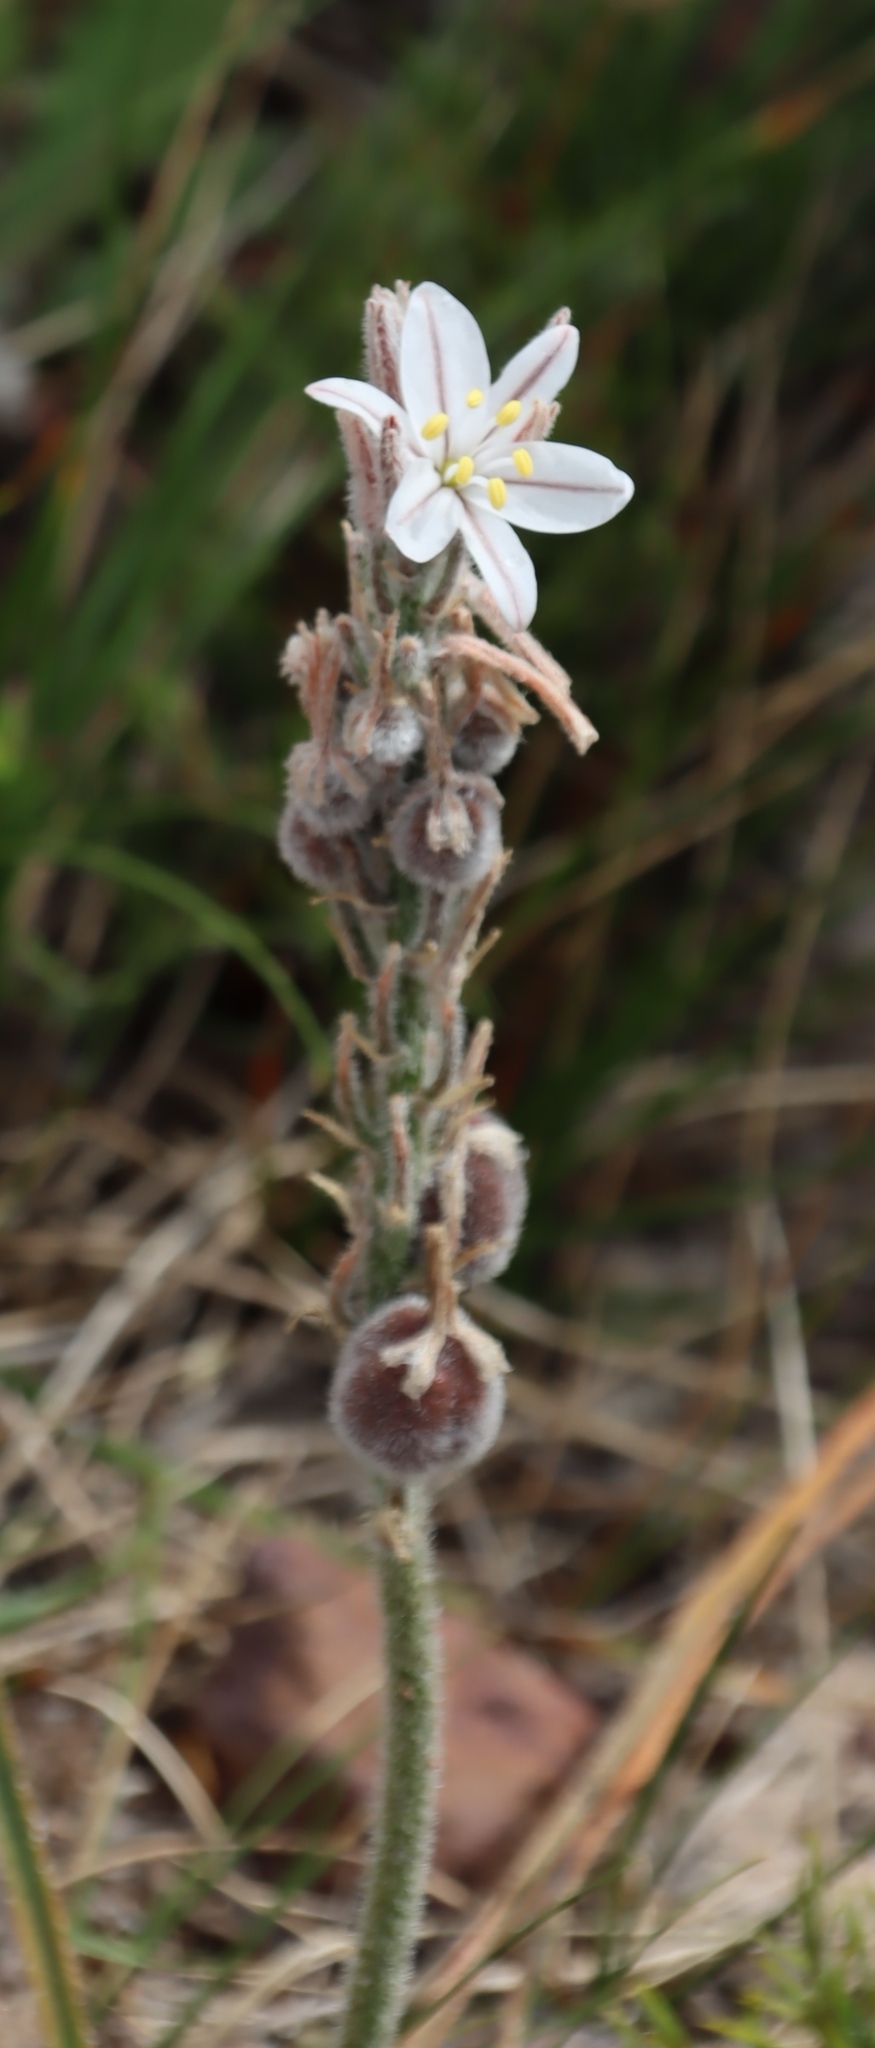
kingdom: Plantae
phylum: Tracheophyta
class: Liliopsida
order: Asparagales
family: Asphodelaceae
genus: Trachyandra
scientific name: Trachyandra hirsutiflora
